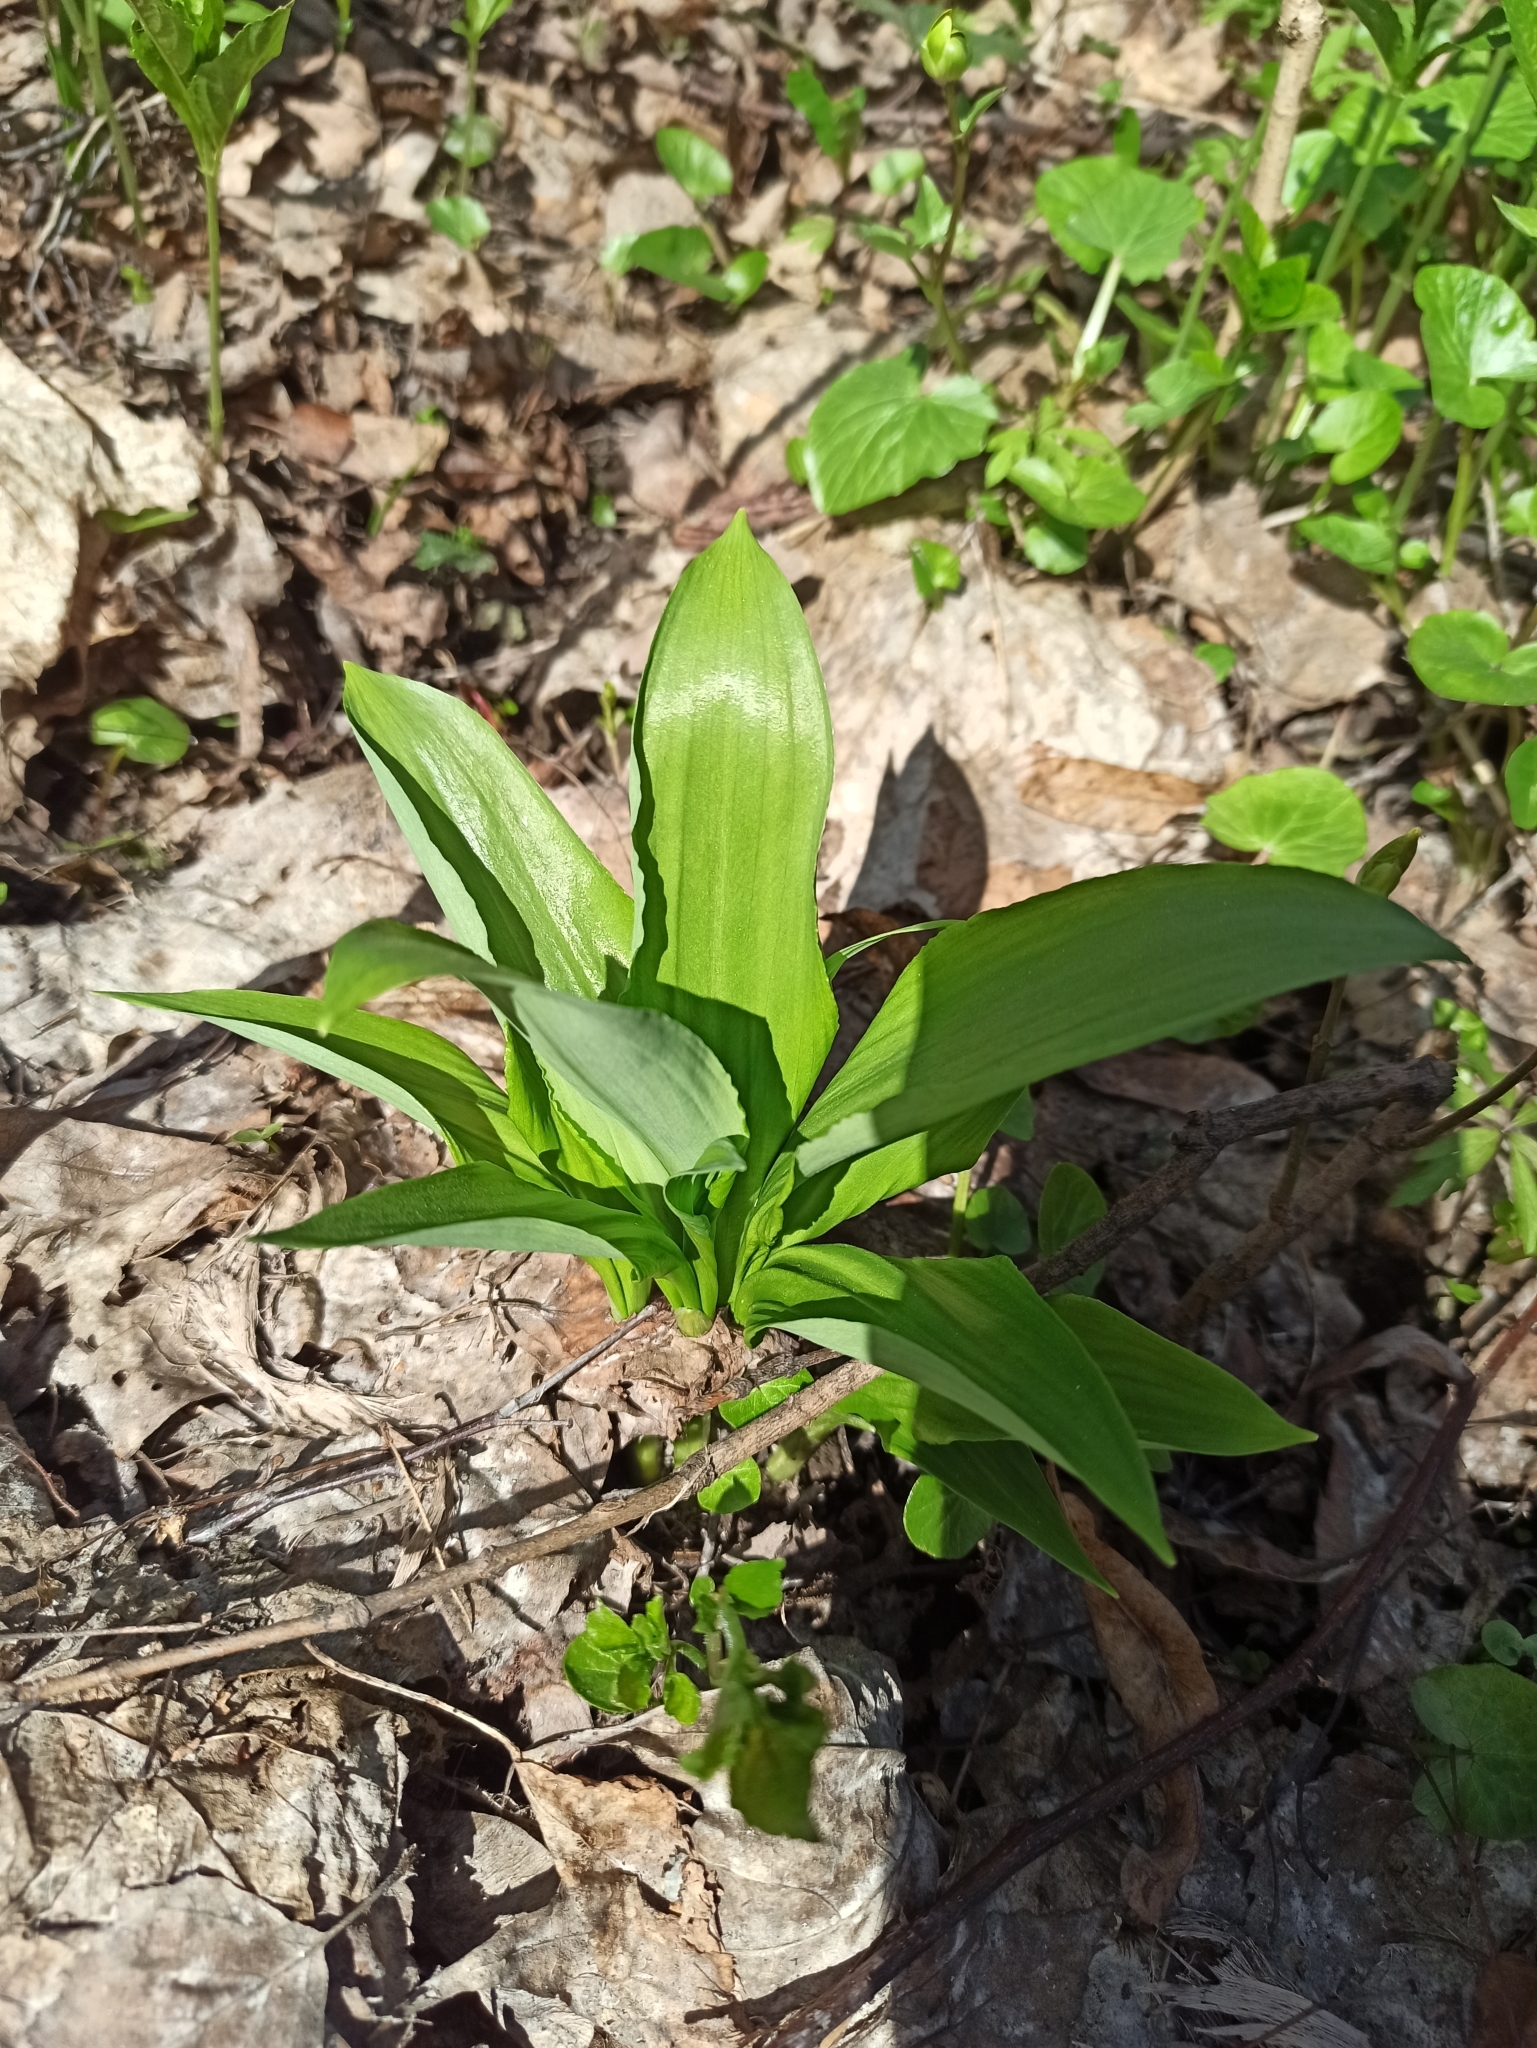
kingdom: Plantae
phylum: Tracheophyta
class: Liliopsida
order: Asparagales
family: Amaryllidaceae
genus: Allium
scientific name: Allium ursinum
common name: Ramsons
